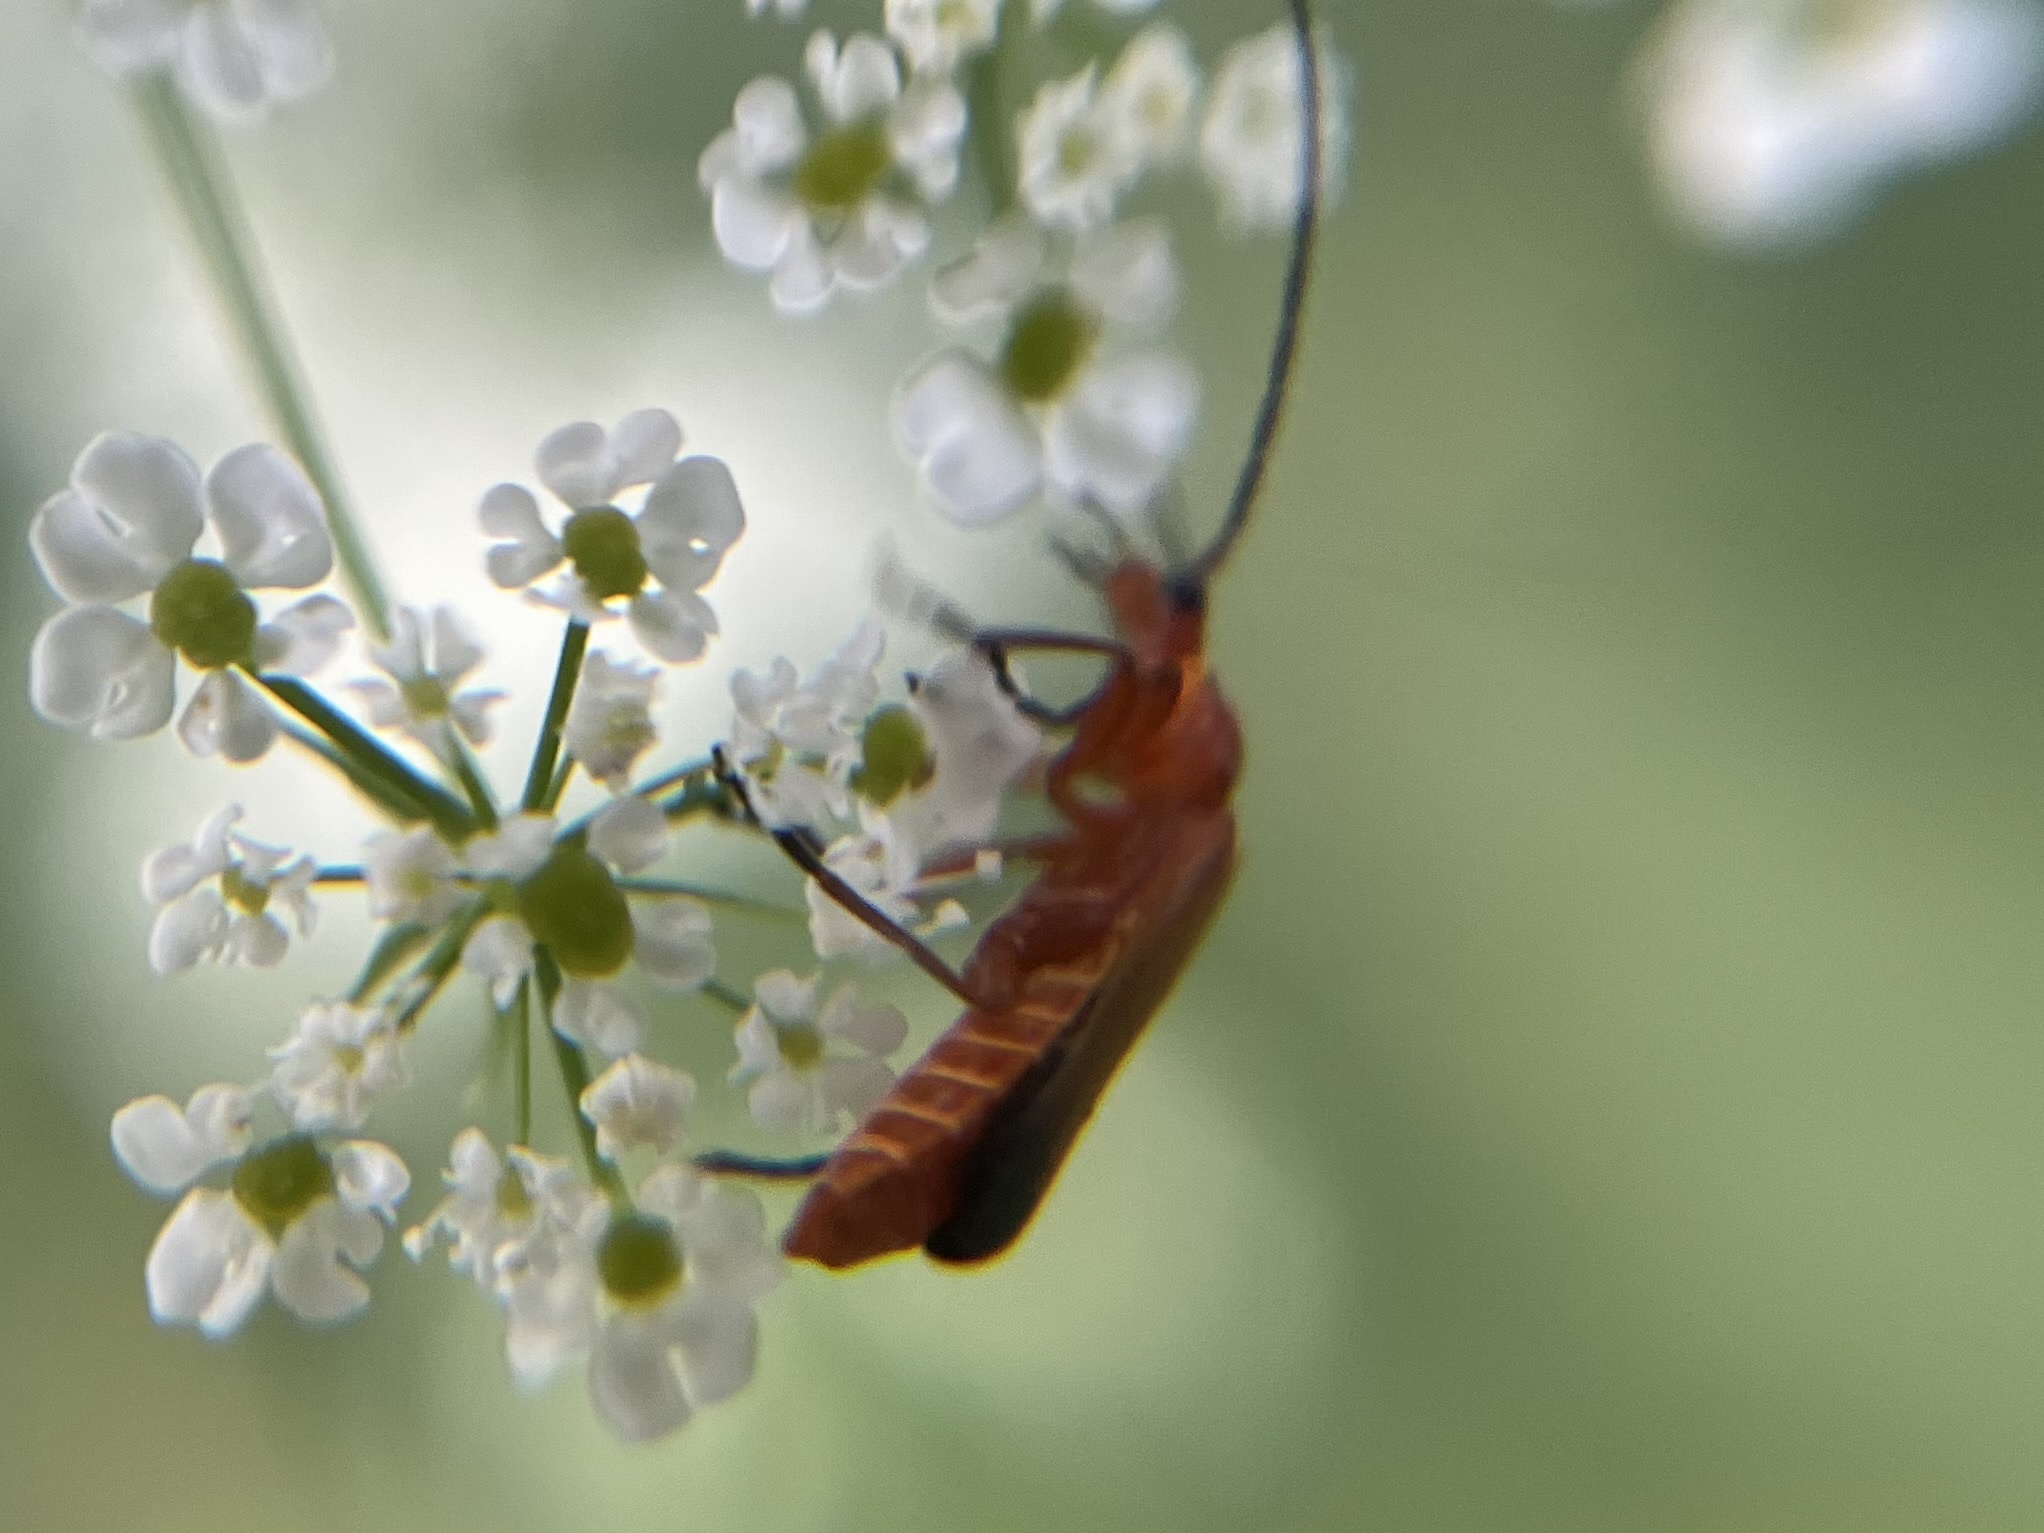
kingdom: Animalia
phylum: Arthropoda
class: Insecta
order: Coleoptera
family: Cantharidae
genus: Rhagonycha
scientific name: Rhagonycha fulva
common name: Common red soldier beetle
